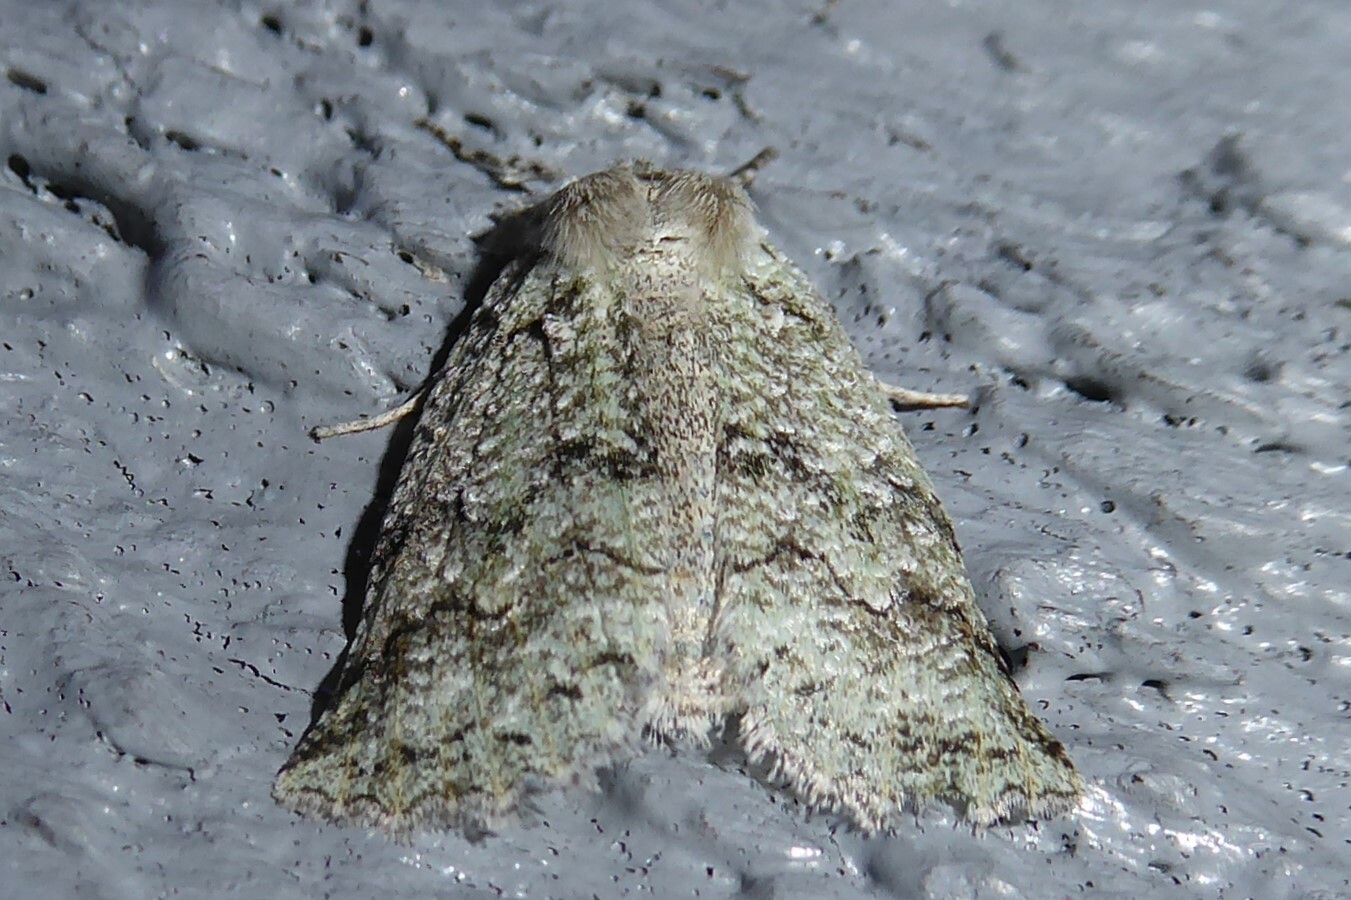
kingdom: Animalia
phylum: Arthropoda
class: Insecta
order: Lepidoptera
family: Geometridae
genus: Declana
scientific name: Declana floccosa
